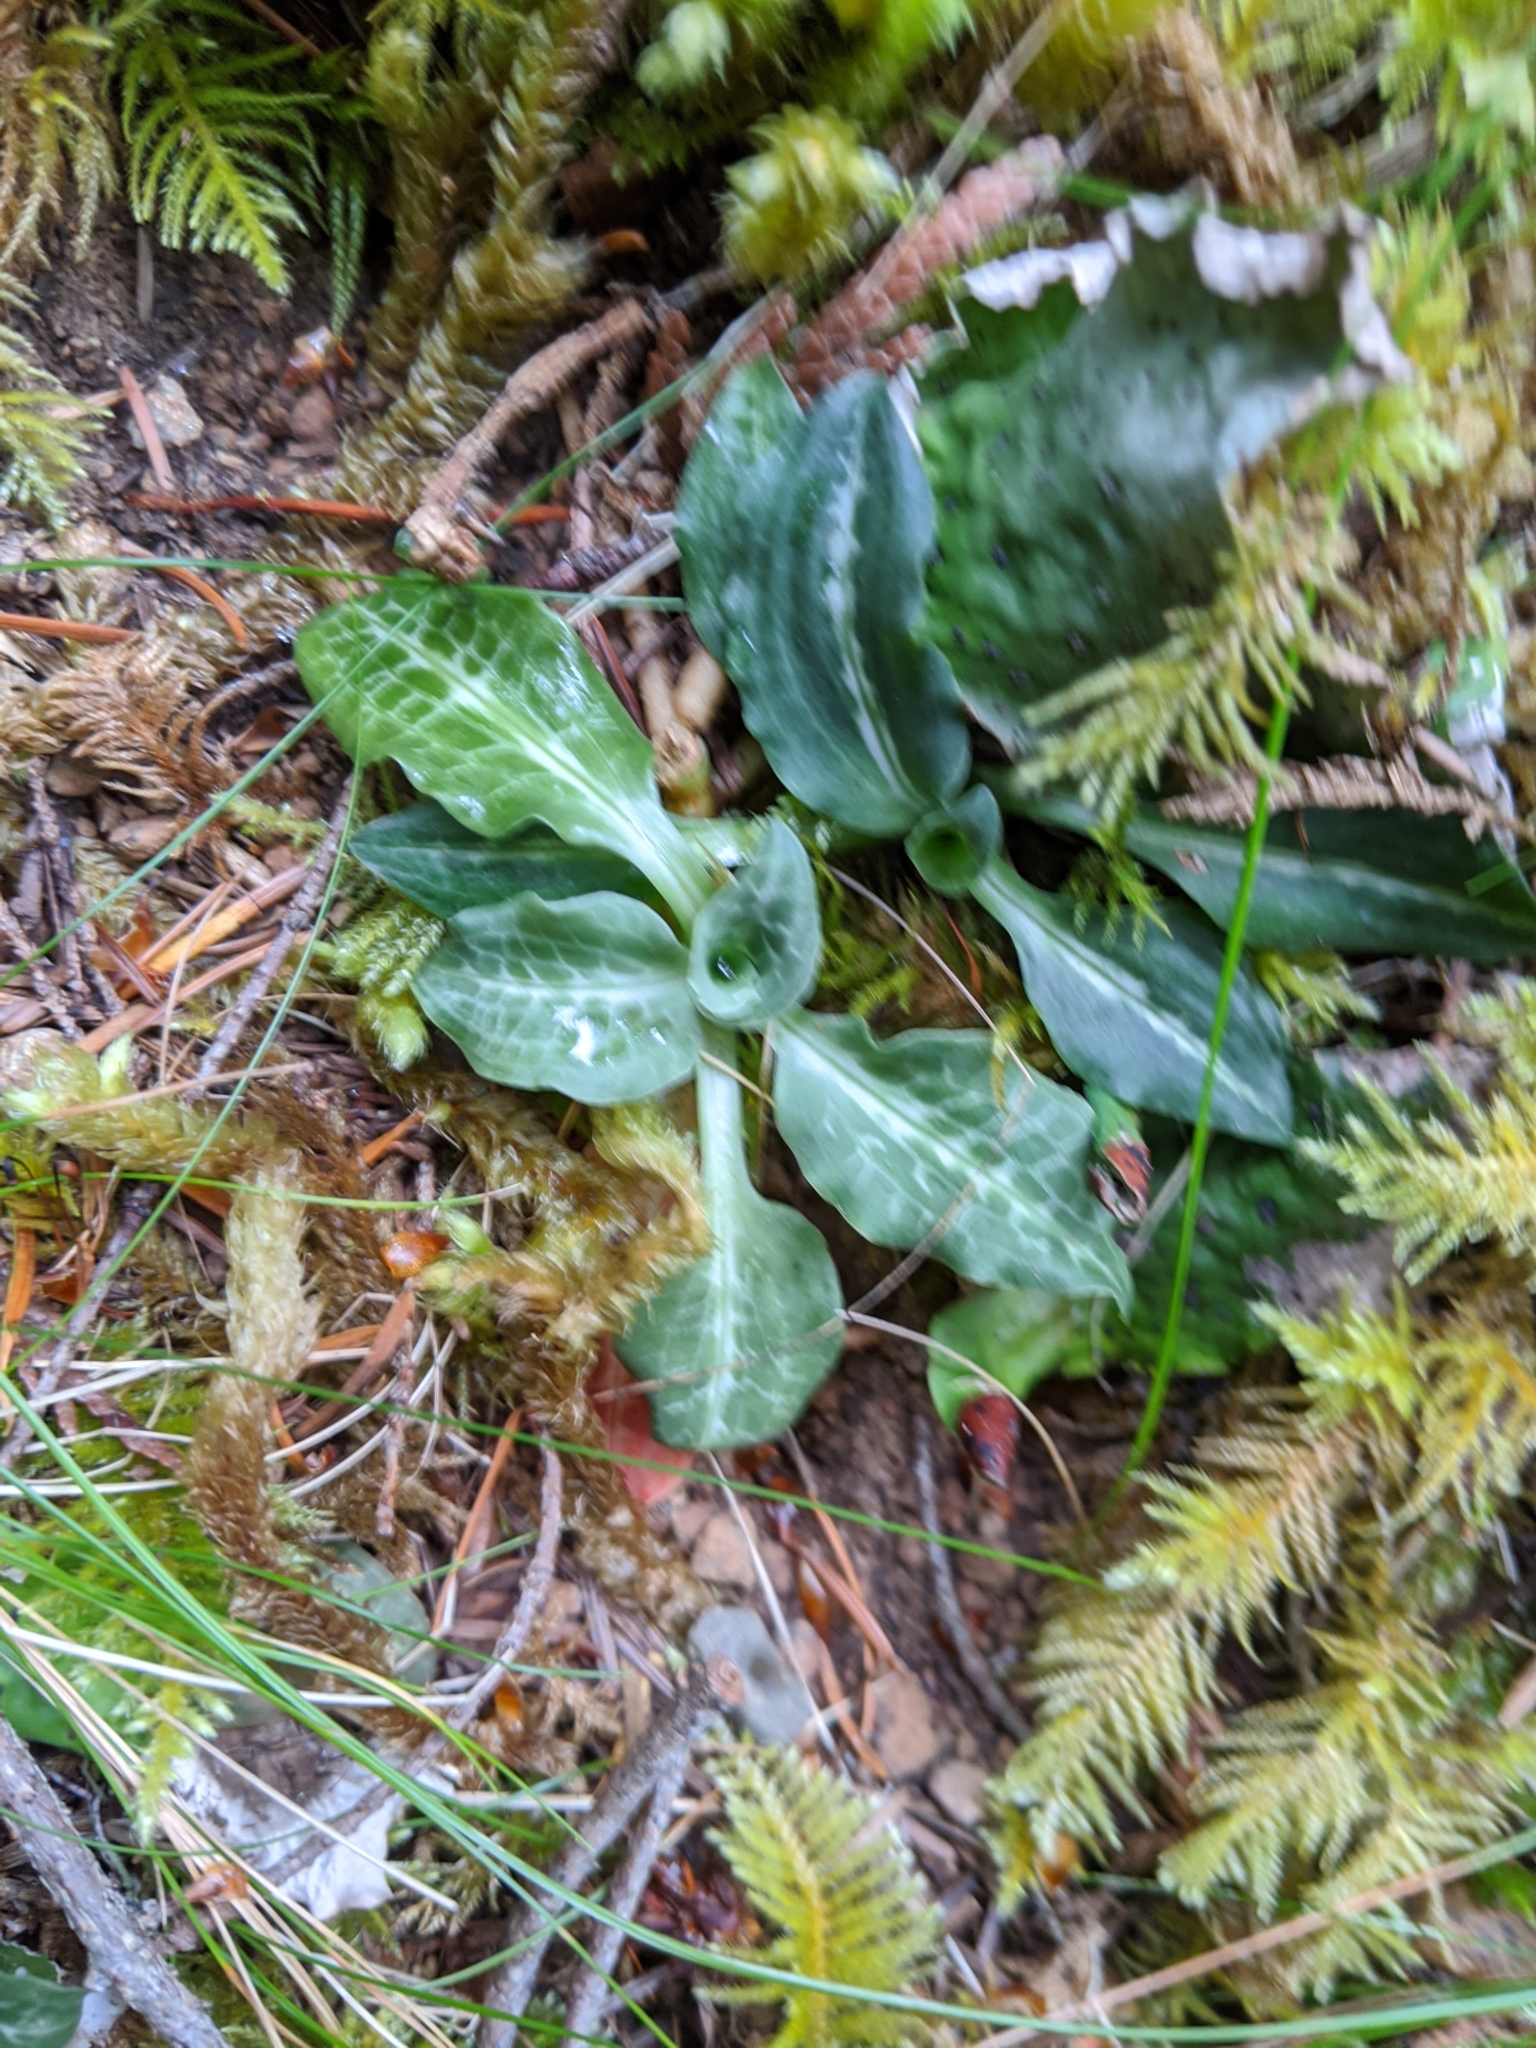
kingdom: Plantae
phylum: Tracheophyta
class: Liliopsida
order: Asparagales
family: Orchidaceae
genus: Goodyera
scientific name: Goodyera oblongifolia
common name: Giant rattlesnake-plantain
